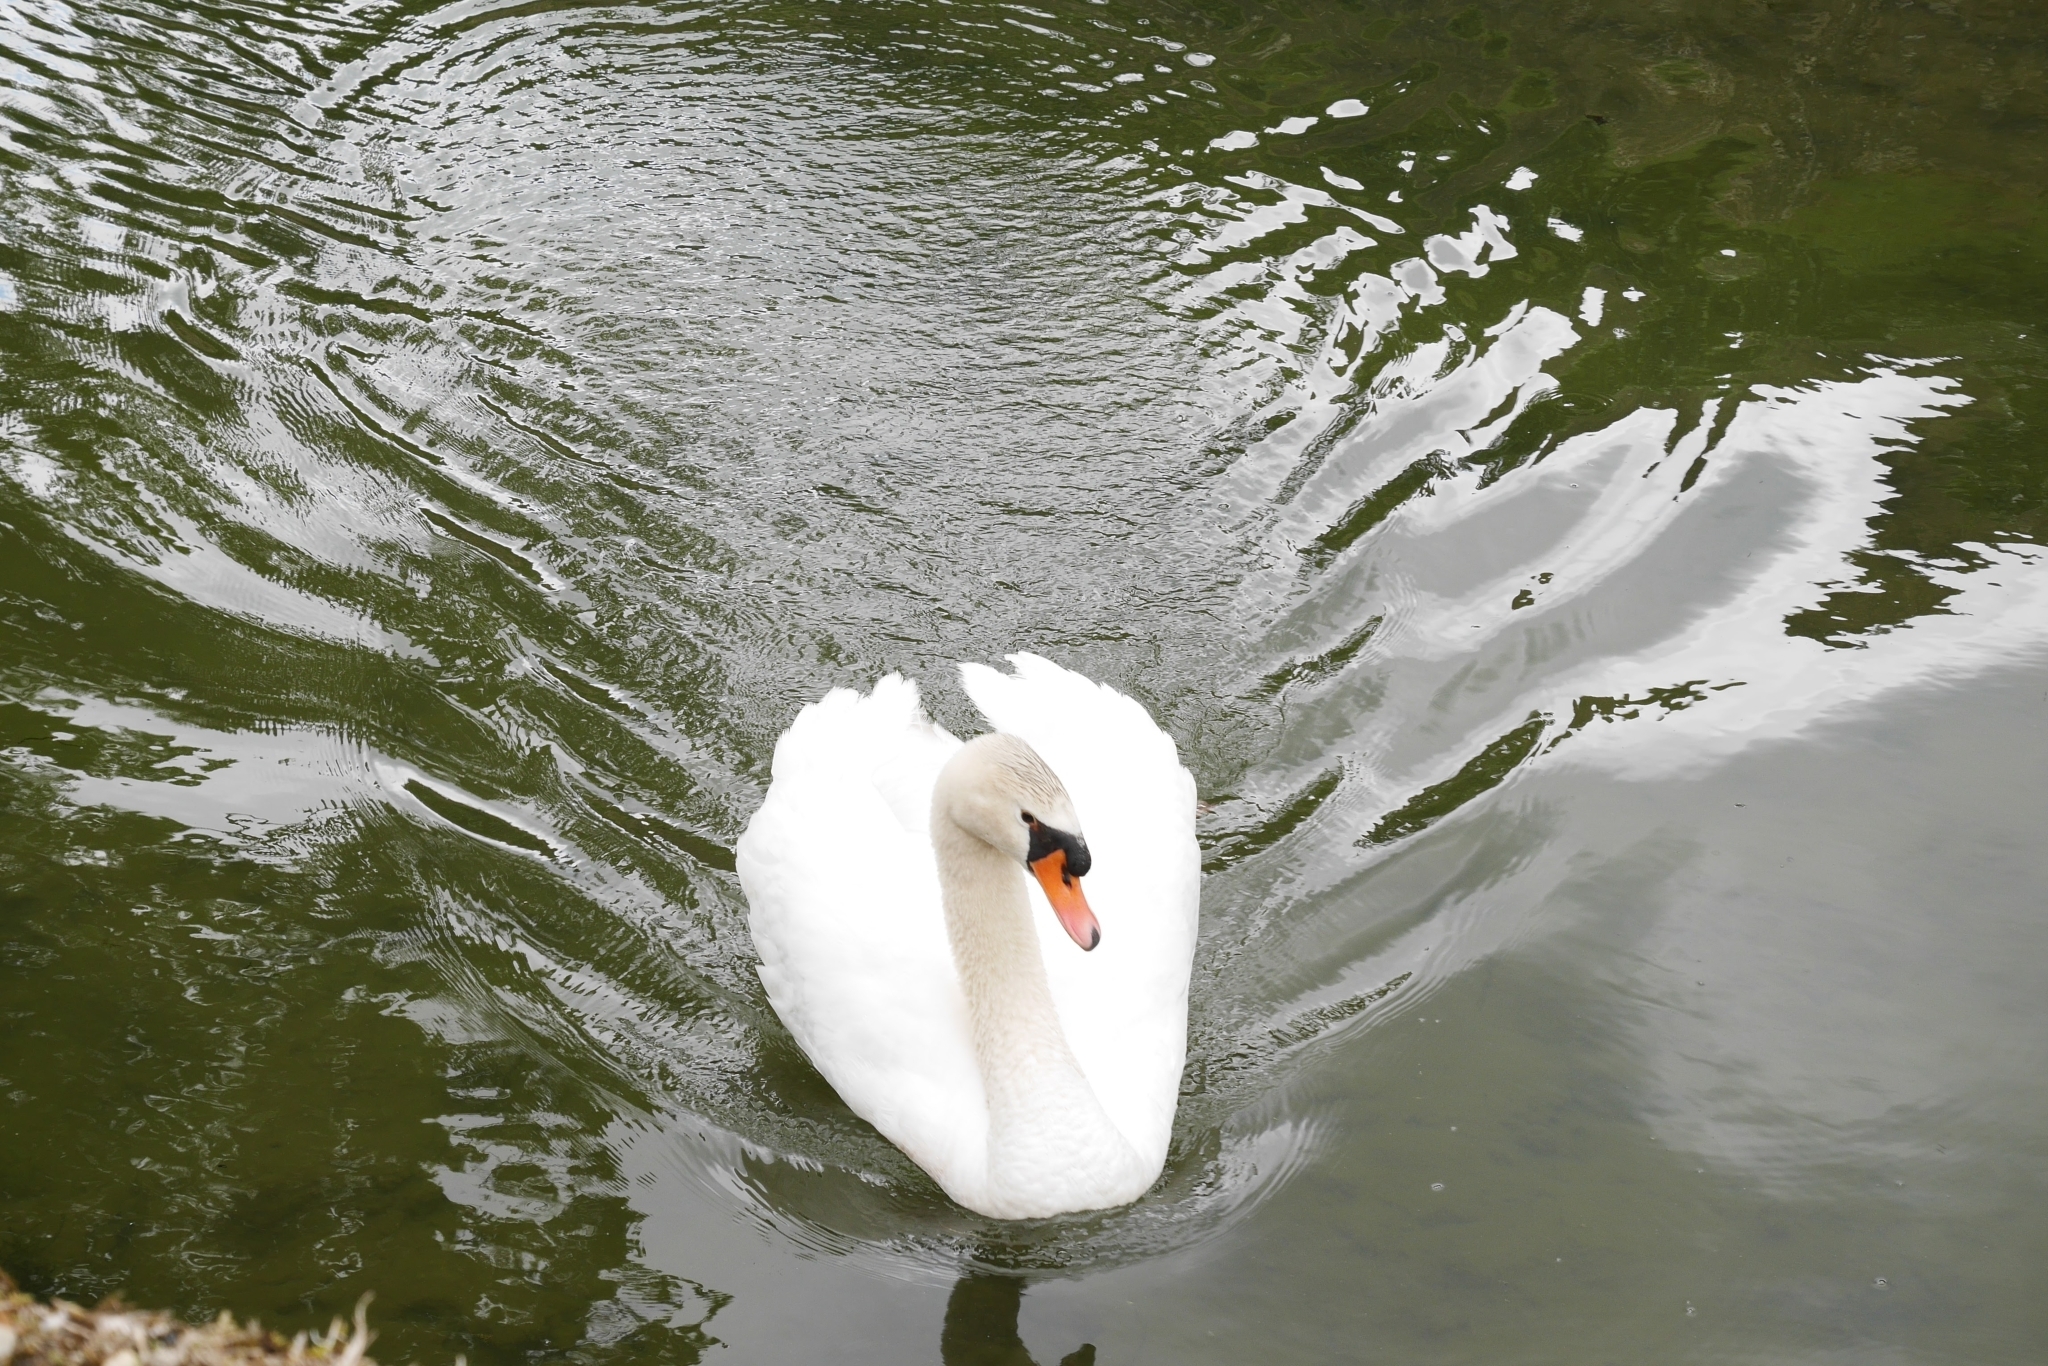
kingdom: Animalia
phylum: Chordata
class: Aves
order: Anseriformes
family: Anatidae
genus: Cygnus
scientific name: Cygnus olor
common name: Mute swan
